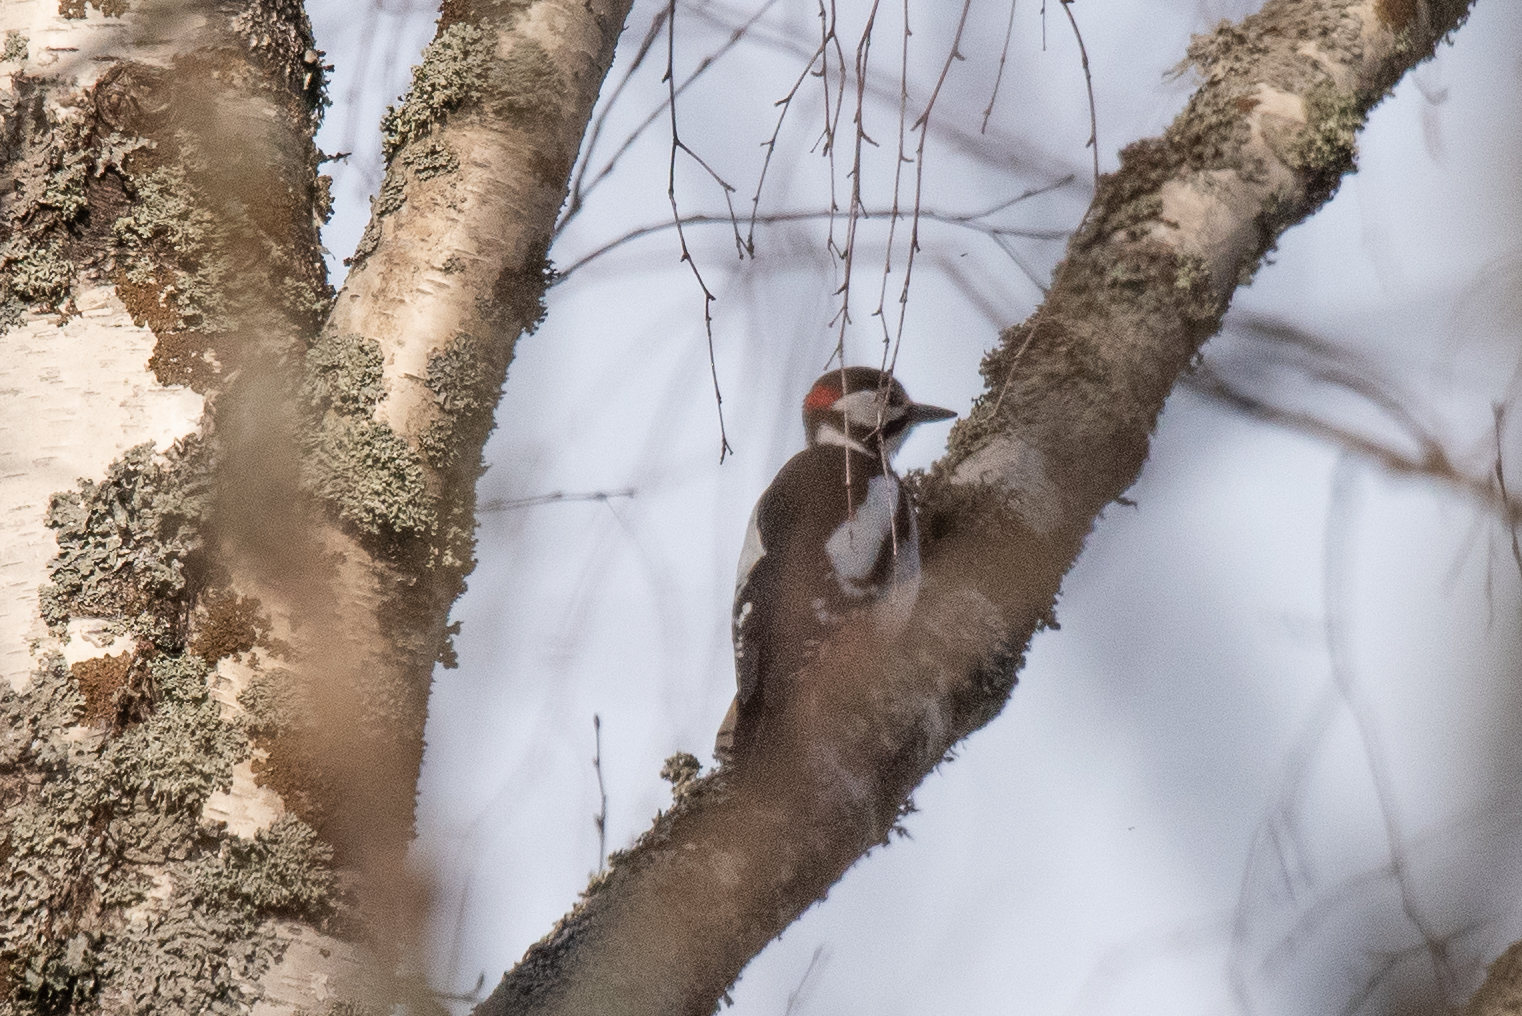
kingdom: Animalia
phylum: Chordata
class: Aves
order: Piciformes
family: Picidae
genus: Dendrocopos
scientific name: Dendrocopos major
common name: Great spotted woodpecker
